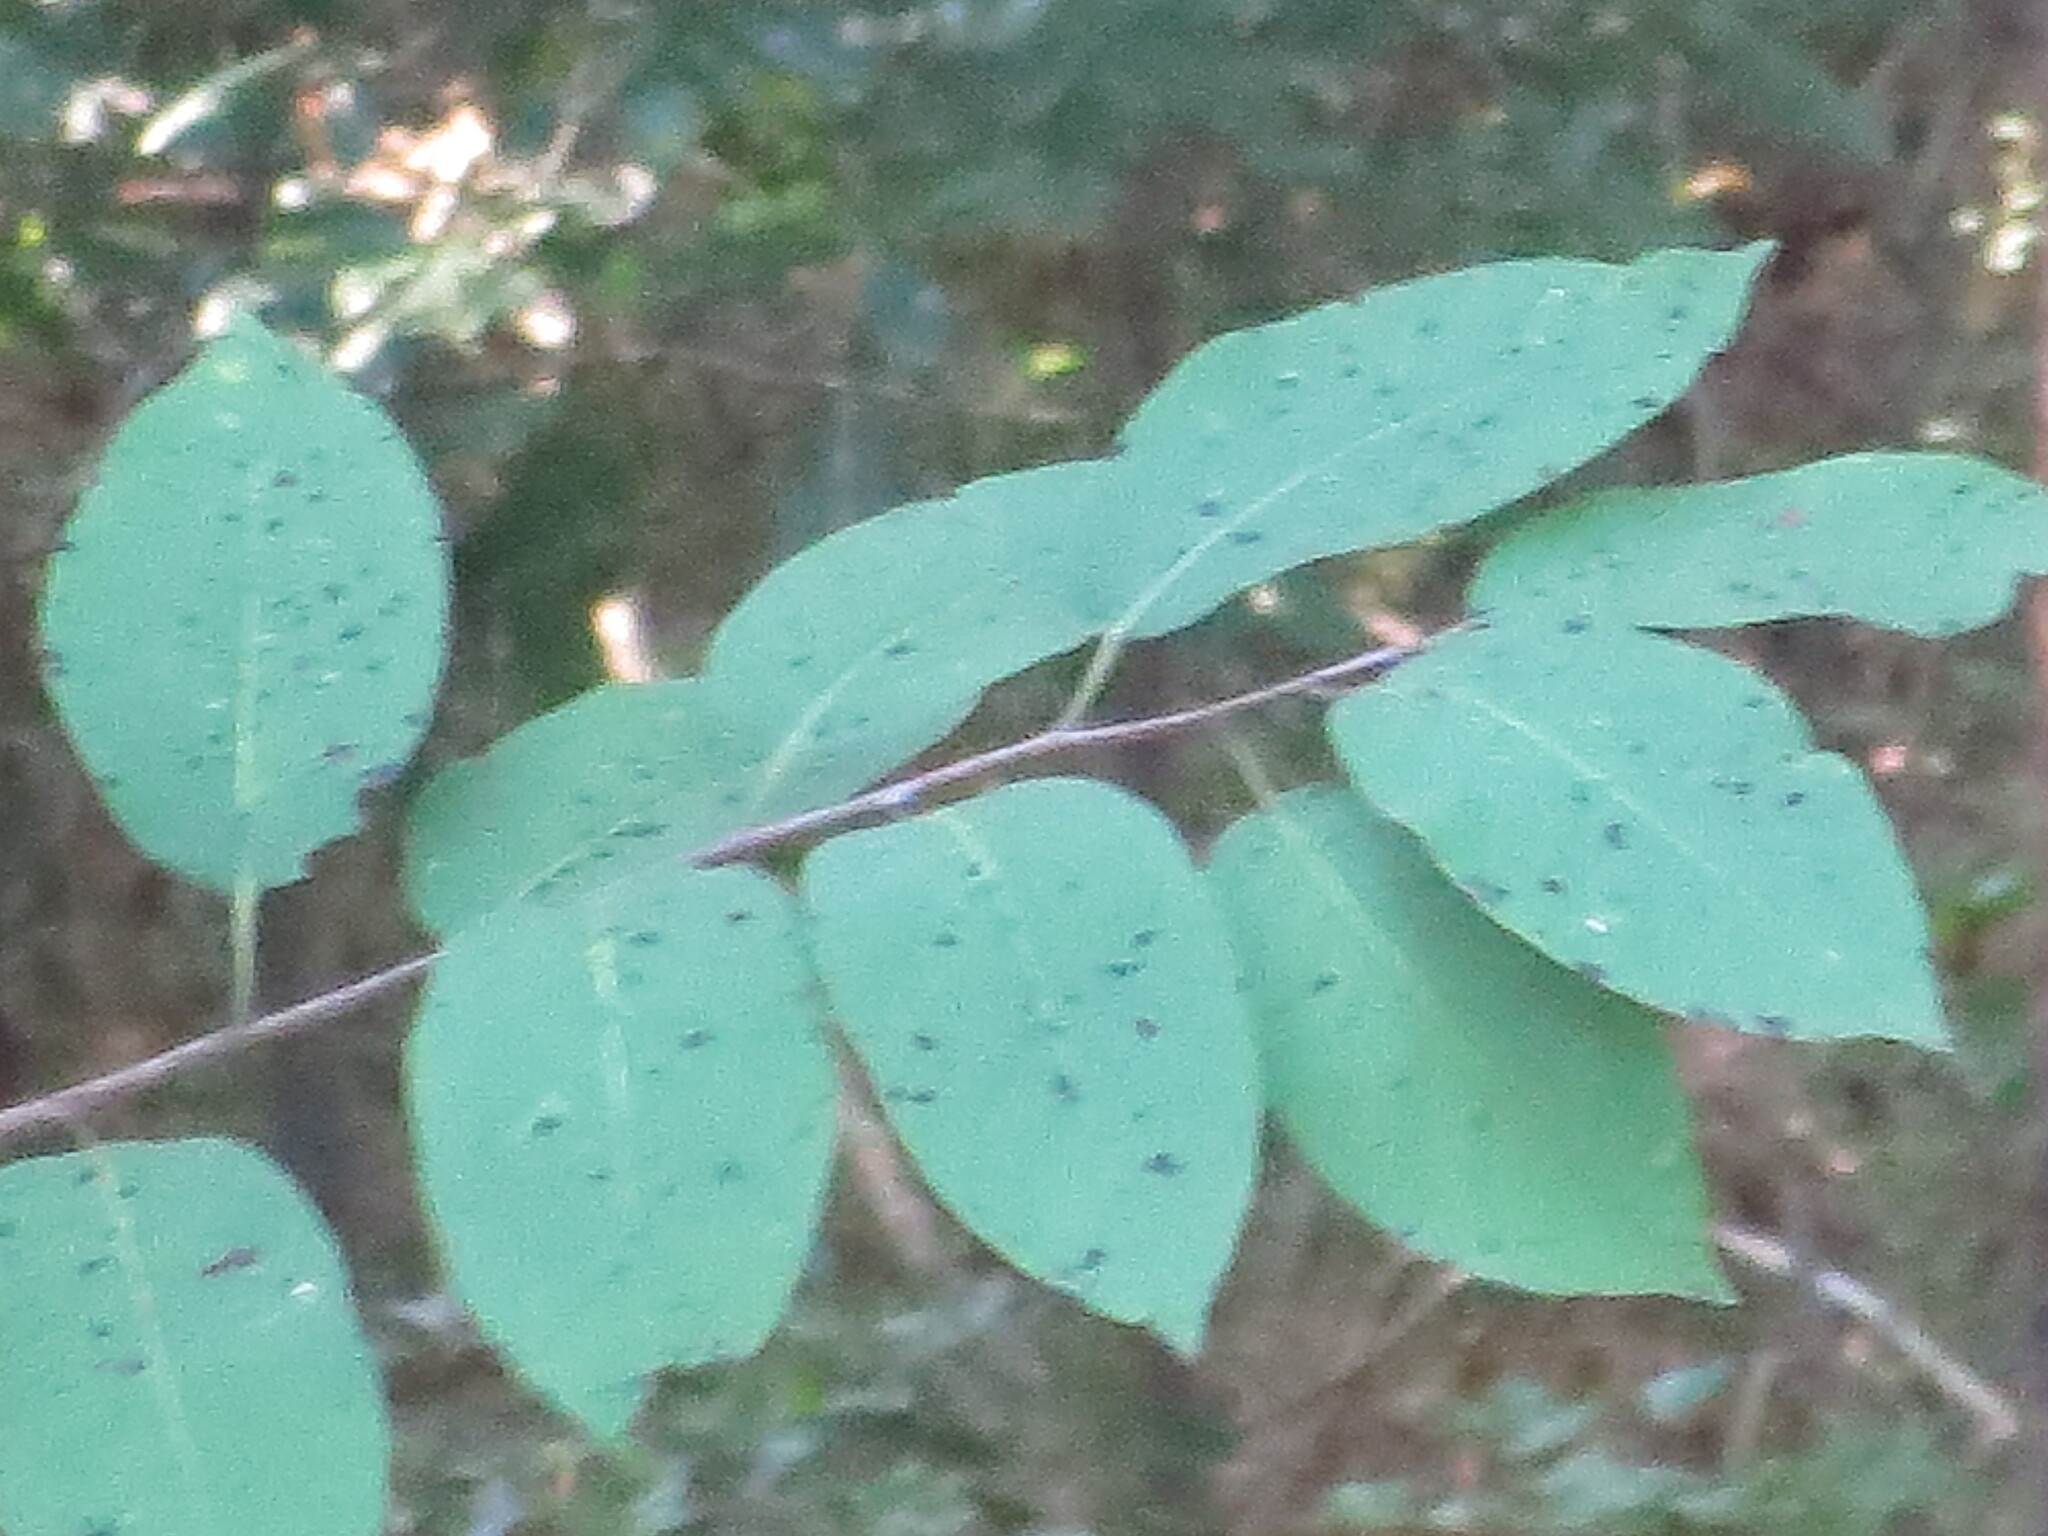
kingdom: Plantae
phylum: Tracheophyta
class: Magnoliopsida
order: Ericales
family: Ebenaceae
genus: Diospyros
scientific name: Diospyros virginiana
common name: Persimmon
